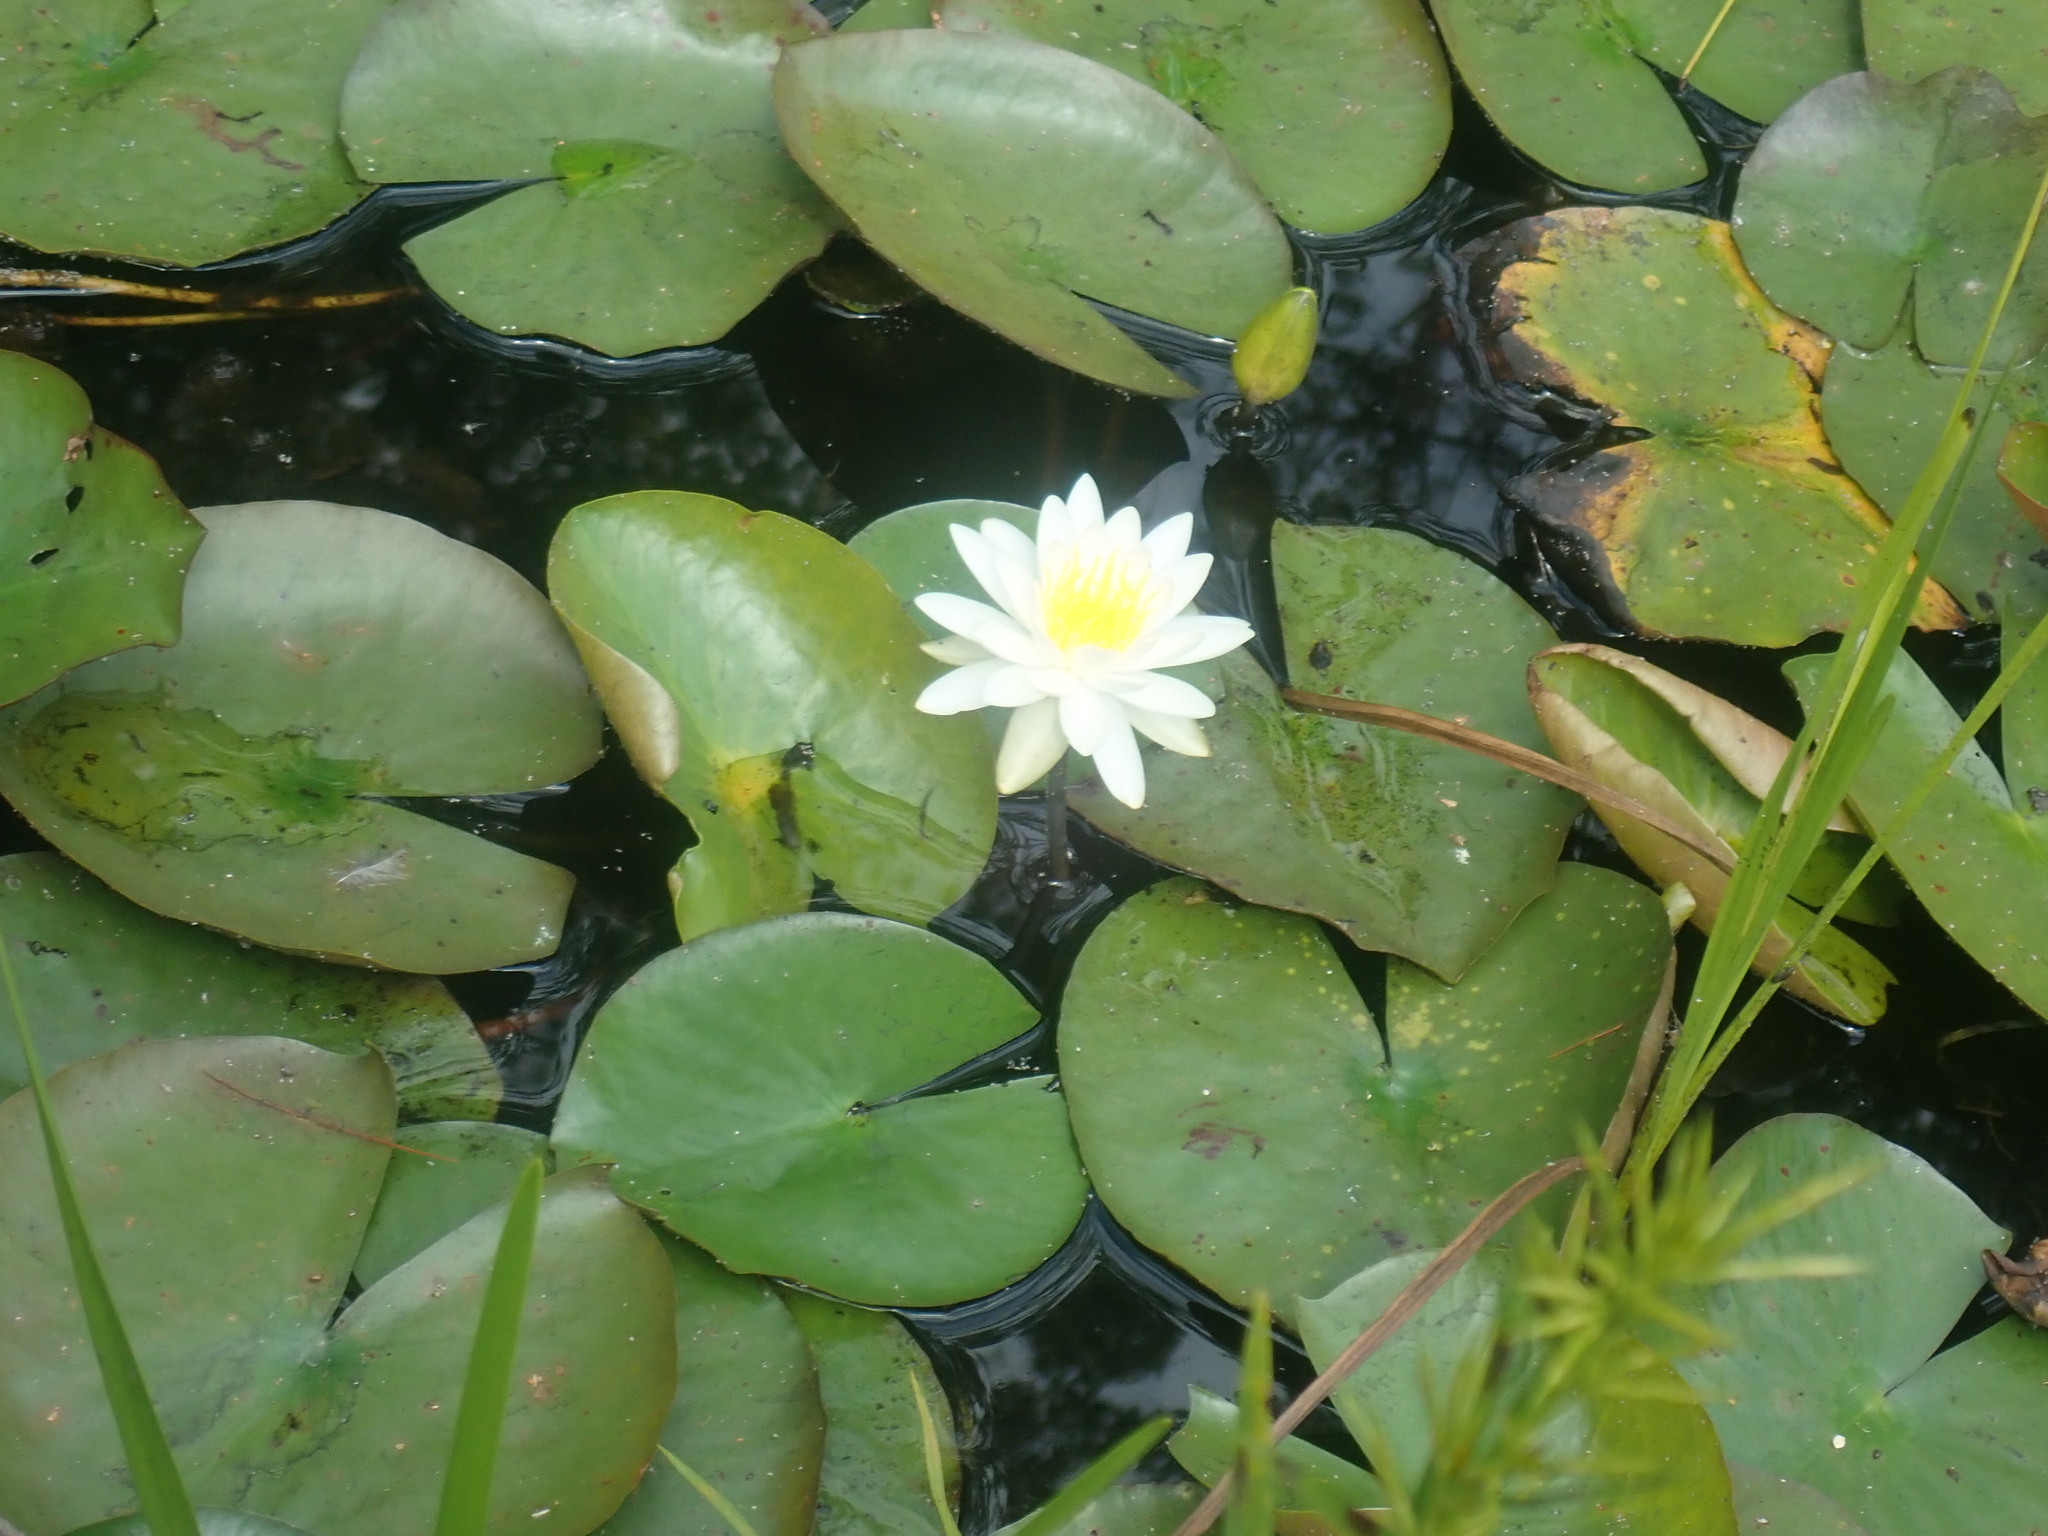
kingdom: Plantae
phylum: Tracheophyta
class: Magnoliopsida
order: Nymphaeales
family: Nymphaeaceae
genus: Nymphaea
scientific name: Nymphaea odorata
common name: Fragrant water-lily
